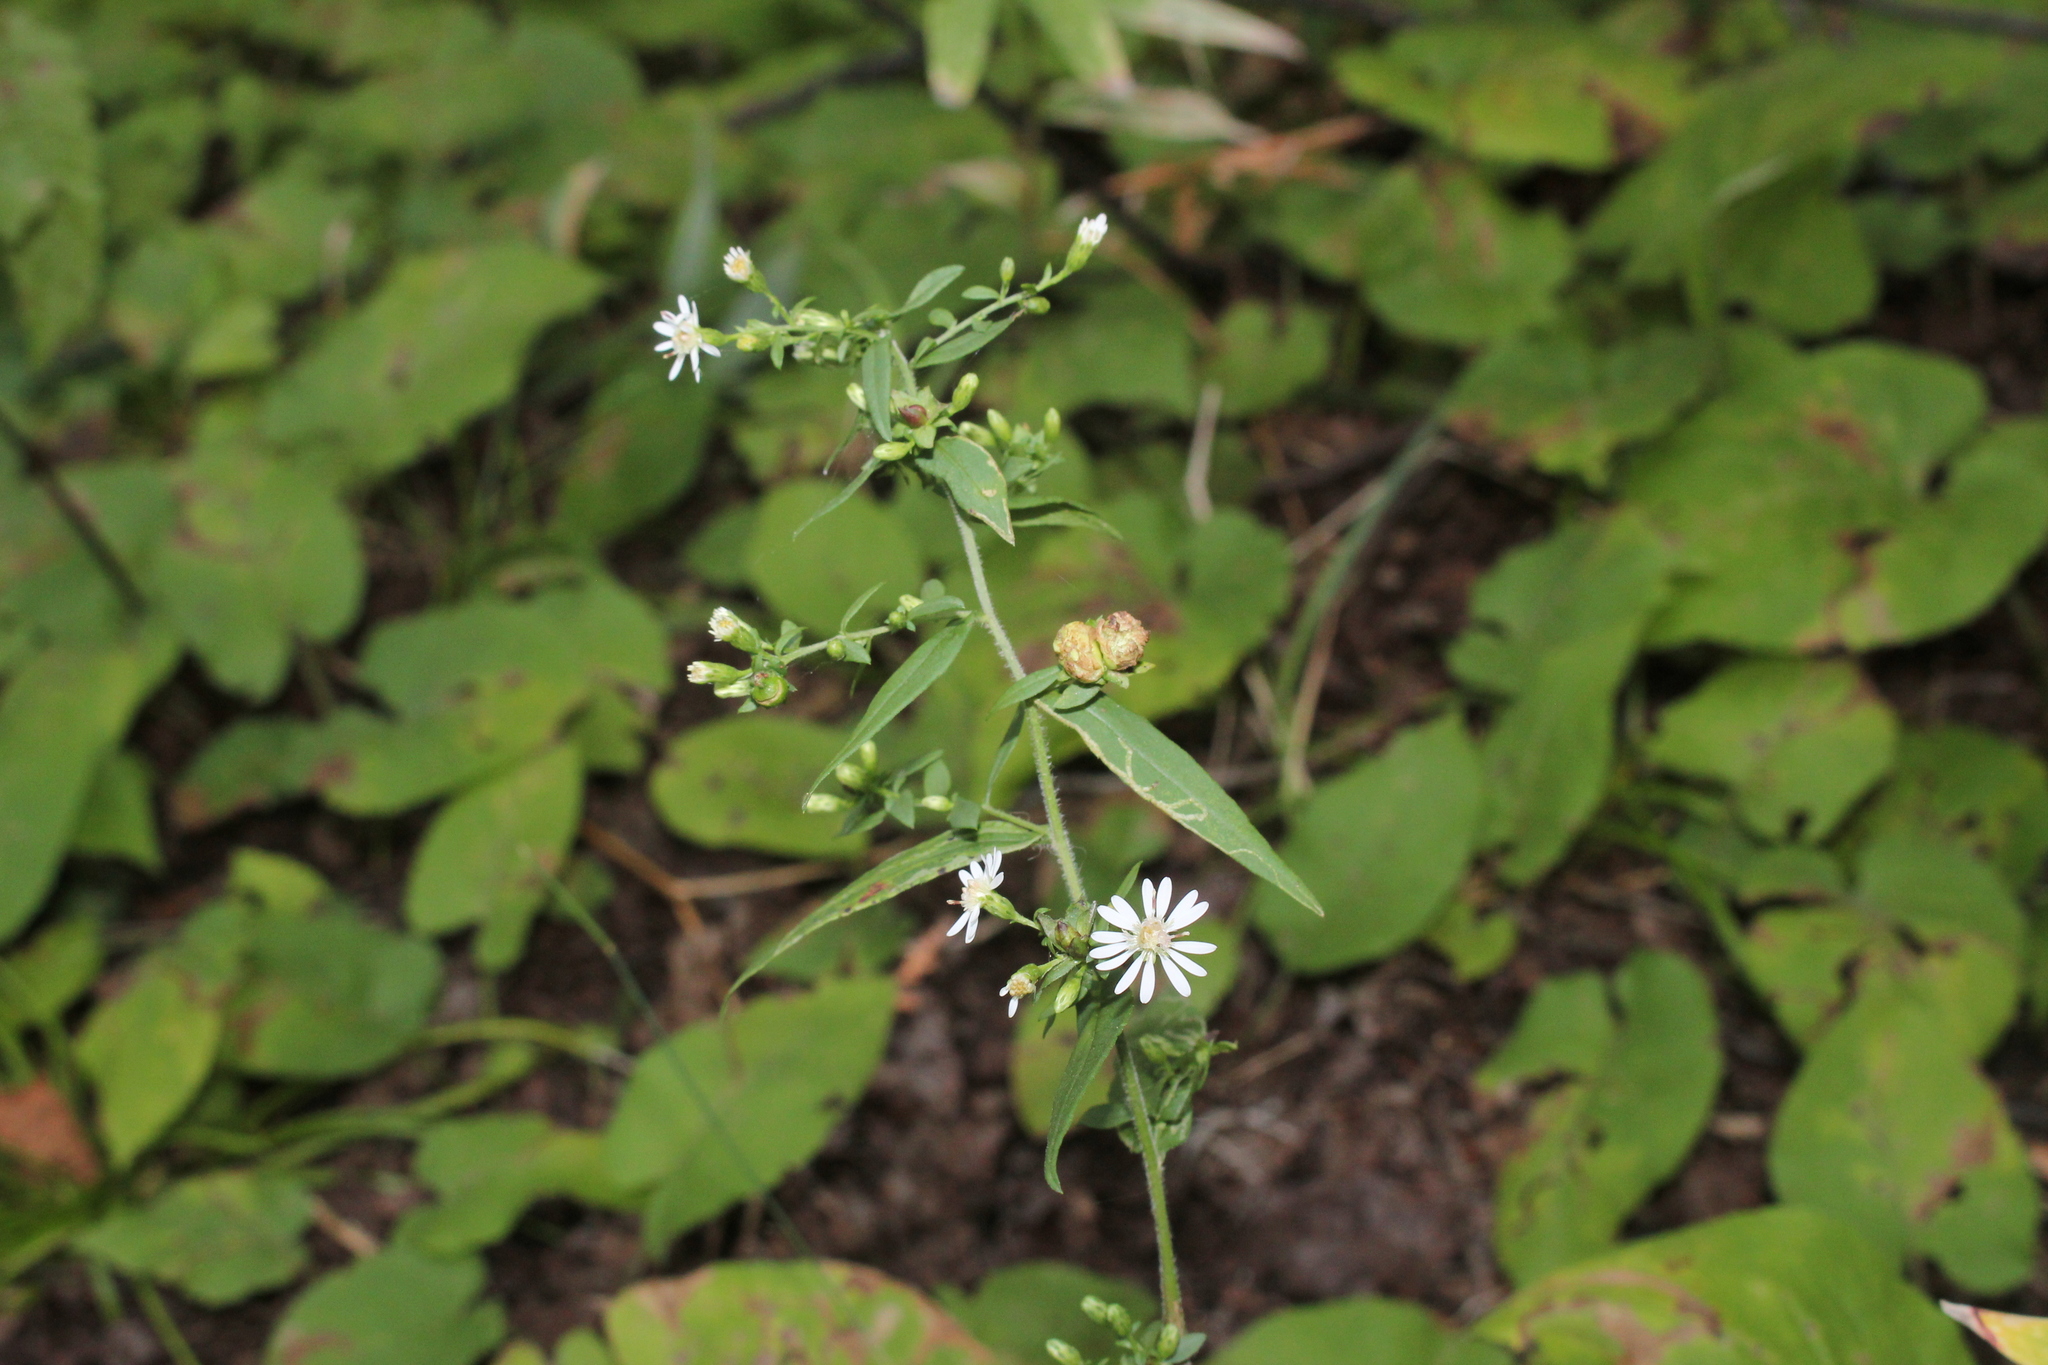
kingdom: Plantae
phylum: Tracheophyta
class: Magnoliopsida
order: Asterales
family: Asteraceae
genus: Symphyotrichum
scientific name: Symphyotrichum lateriflorum
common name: Calico aster
